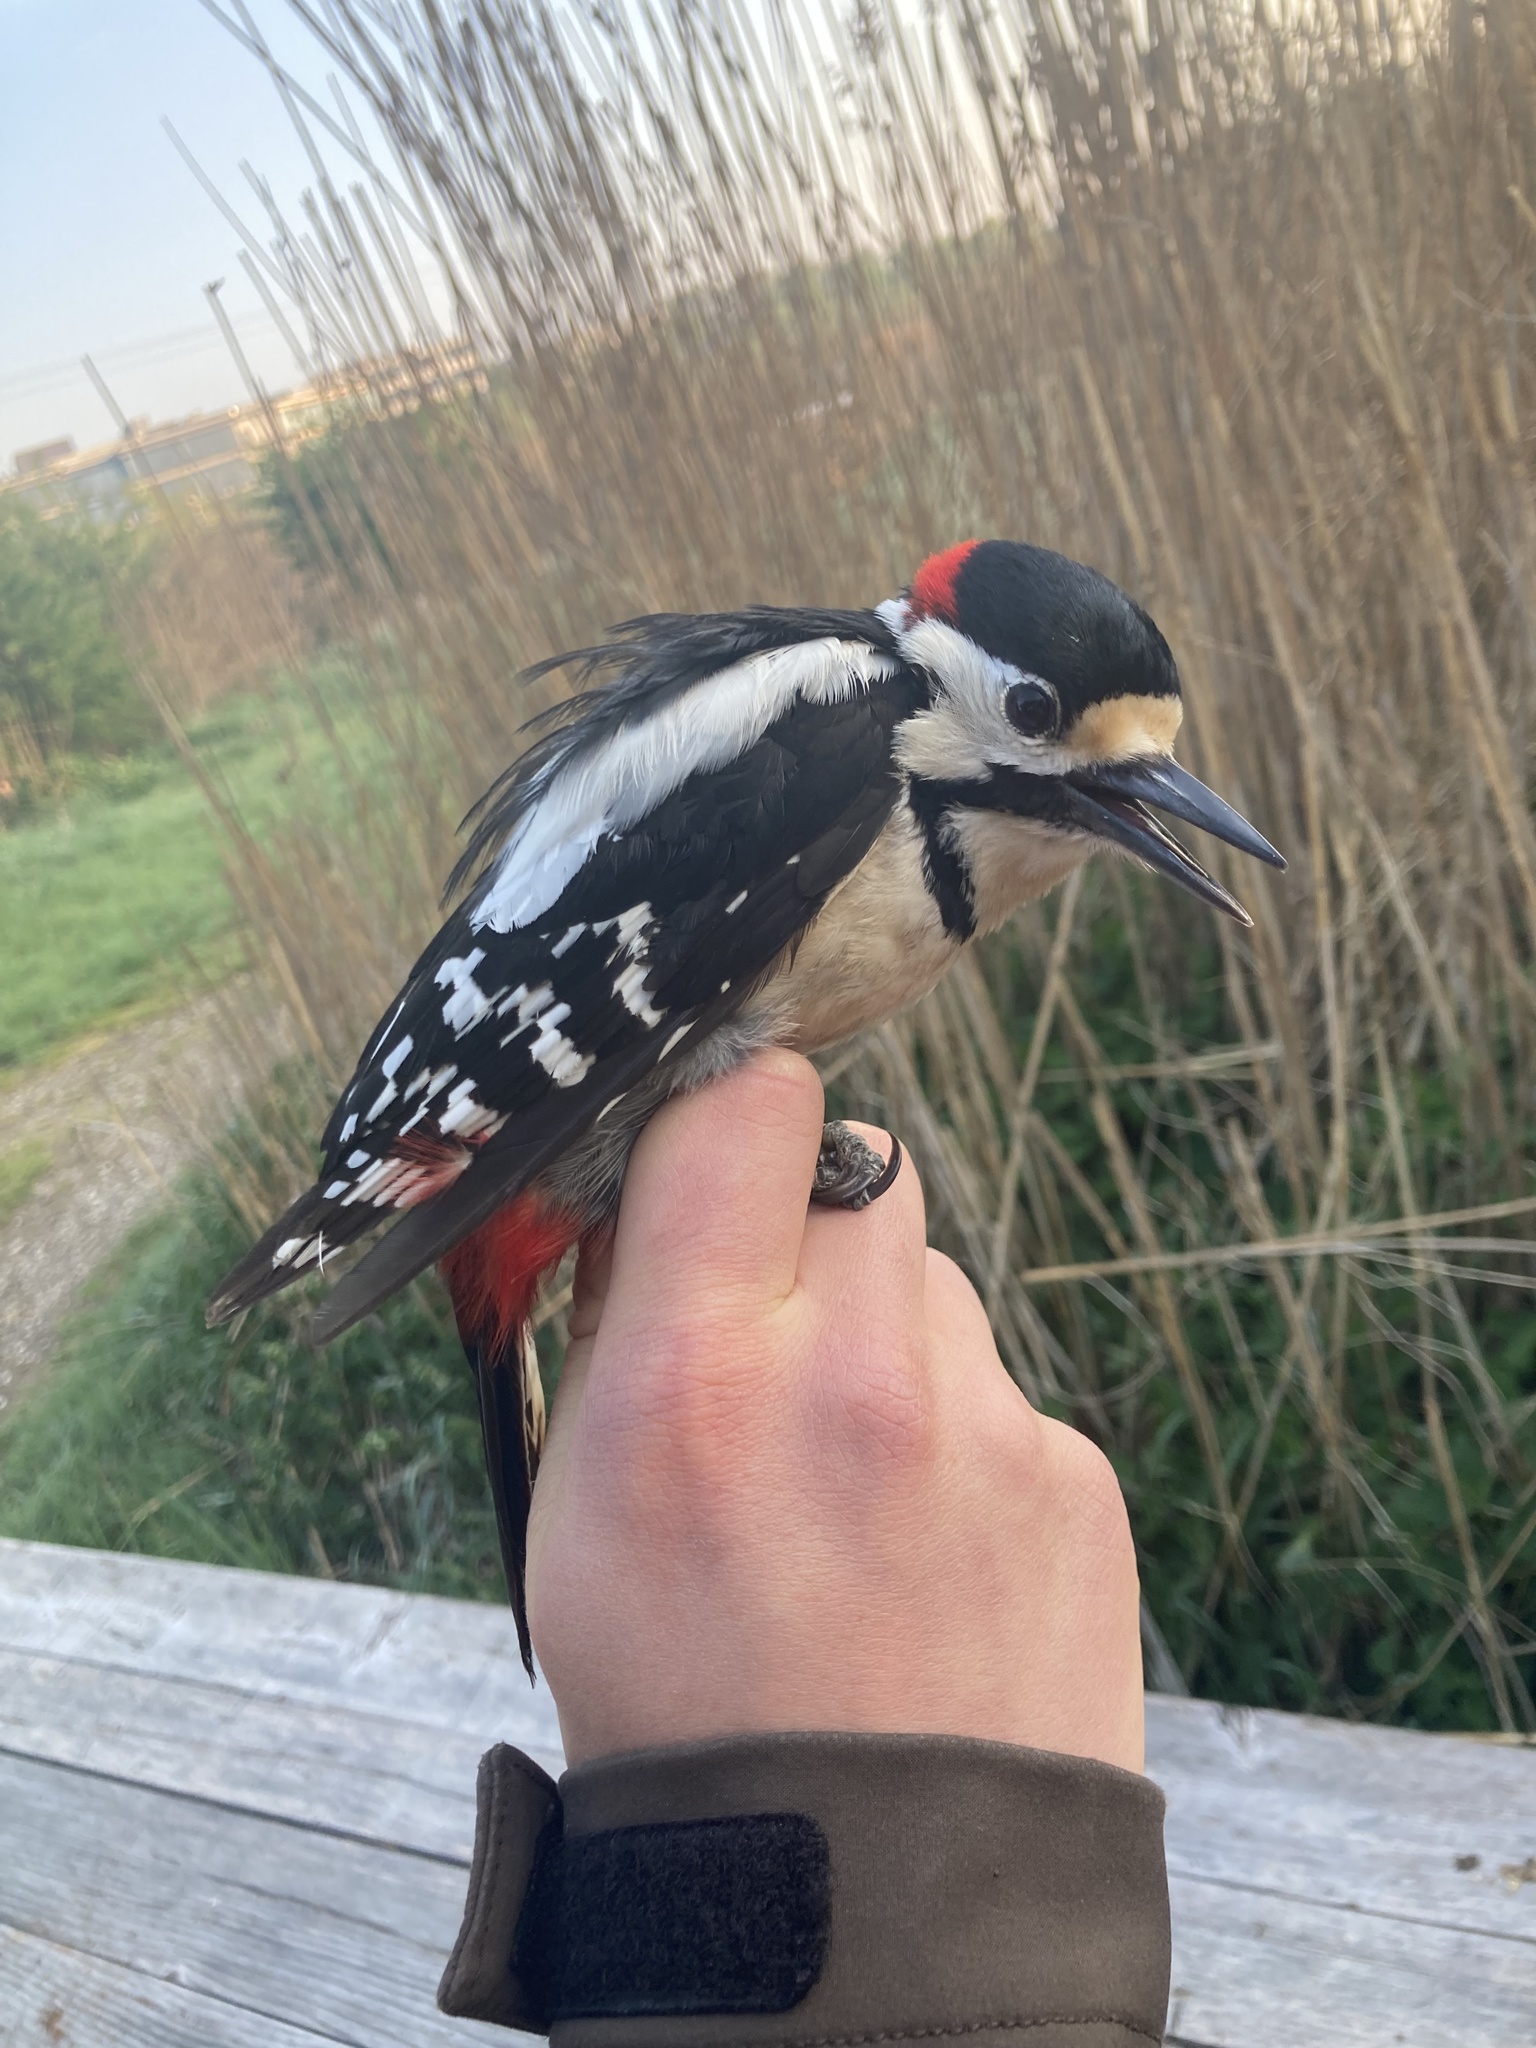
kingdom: Animalia
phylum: Chordata
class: Aves
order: Piciformes
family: Picidae
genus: Dendrocopos
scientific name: Dendrocopos major
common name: Great spotted woodpecker
